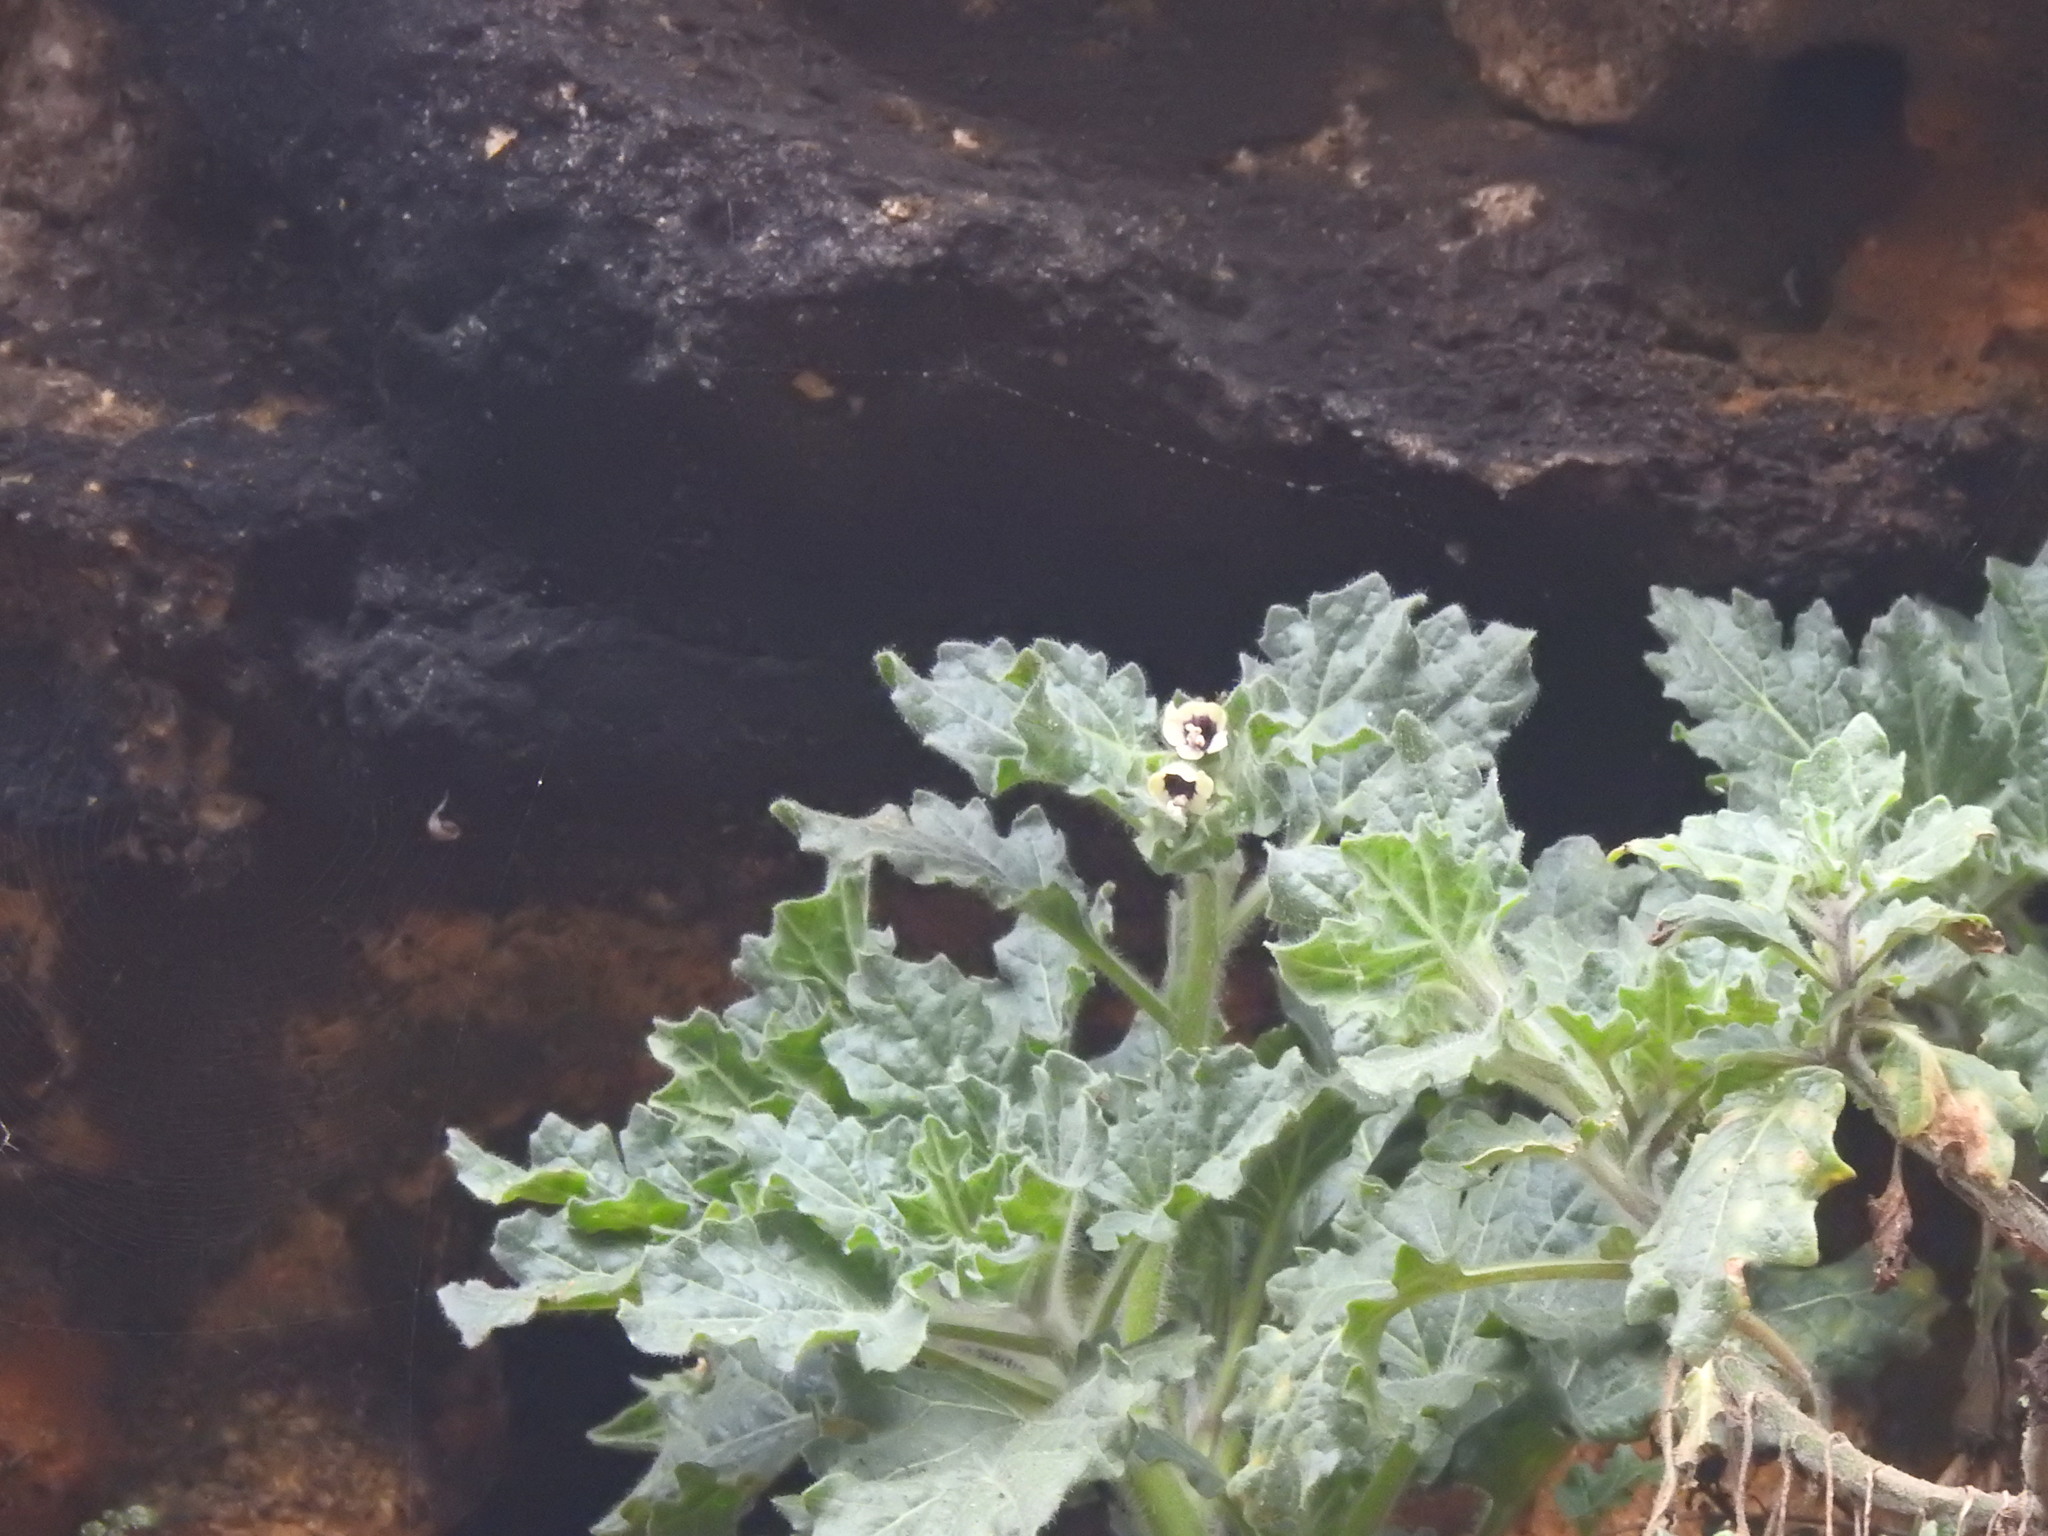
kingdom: Plantae
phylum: Tracheophyta
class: Magnoliopsida
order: Solanales
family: Solanaceae
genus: Hyoscyamus
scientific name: Hyoscyamus albus
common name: White henbane
